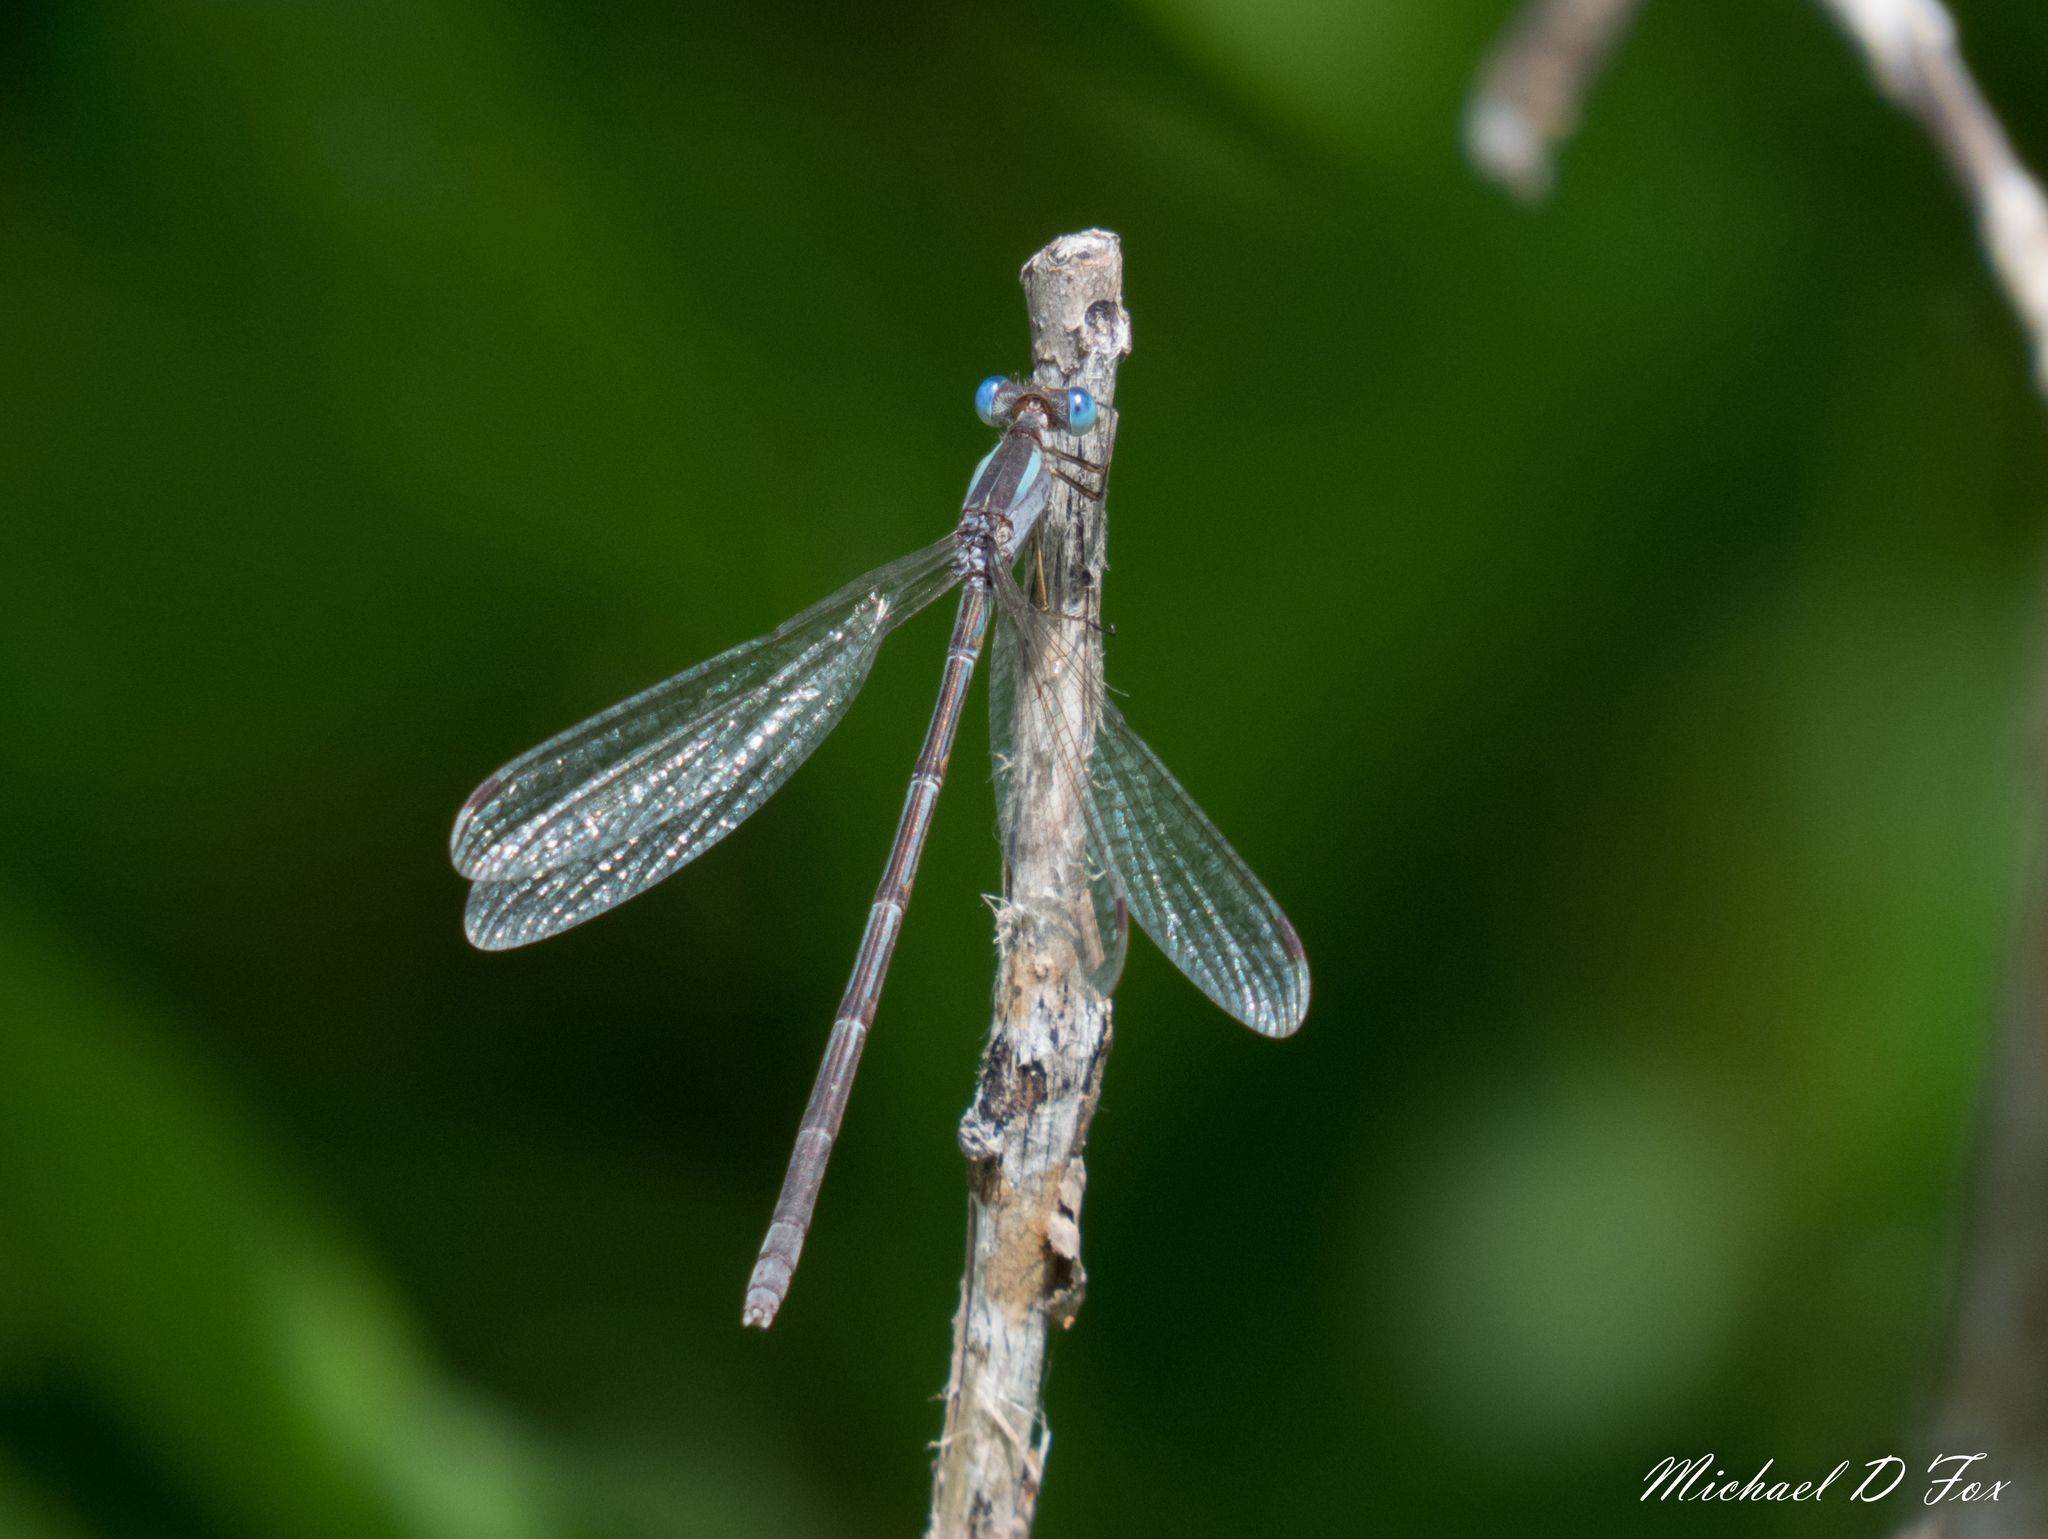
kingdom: Animalia
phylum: Arthropoda
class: Insecta
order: Odonata
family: Lestidae
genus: Lestes
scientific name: Lestes alacer
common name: Plateau spreadwing
